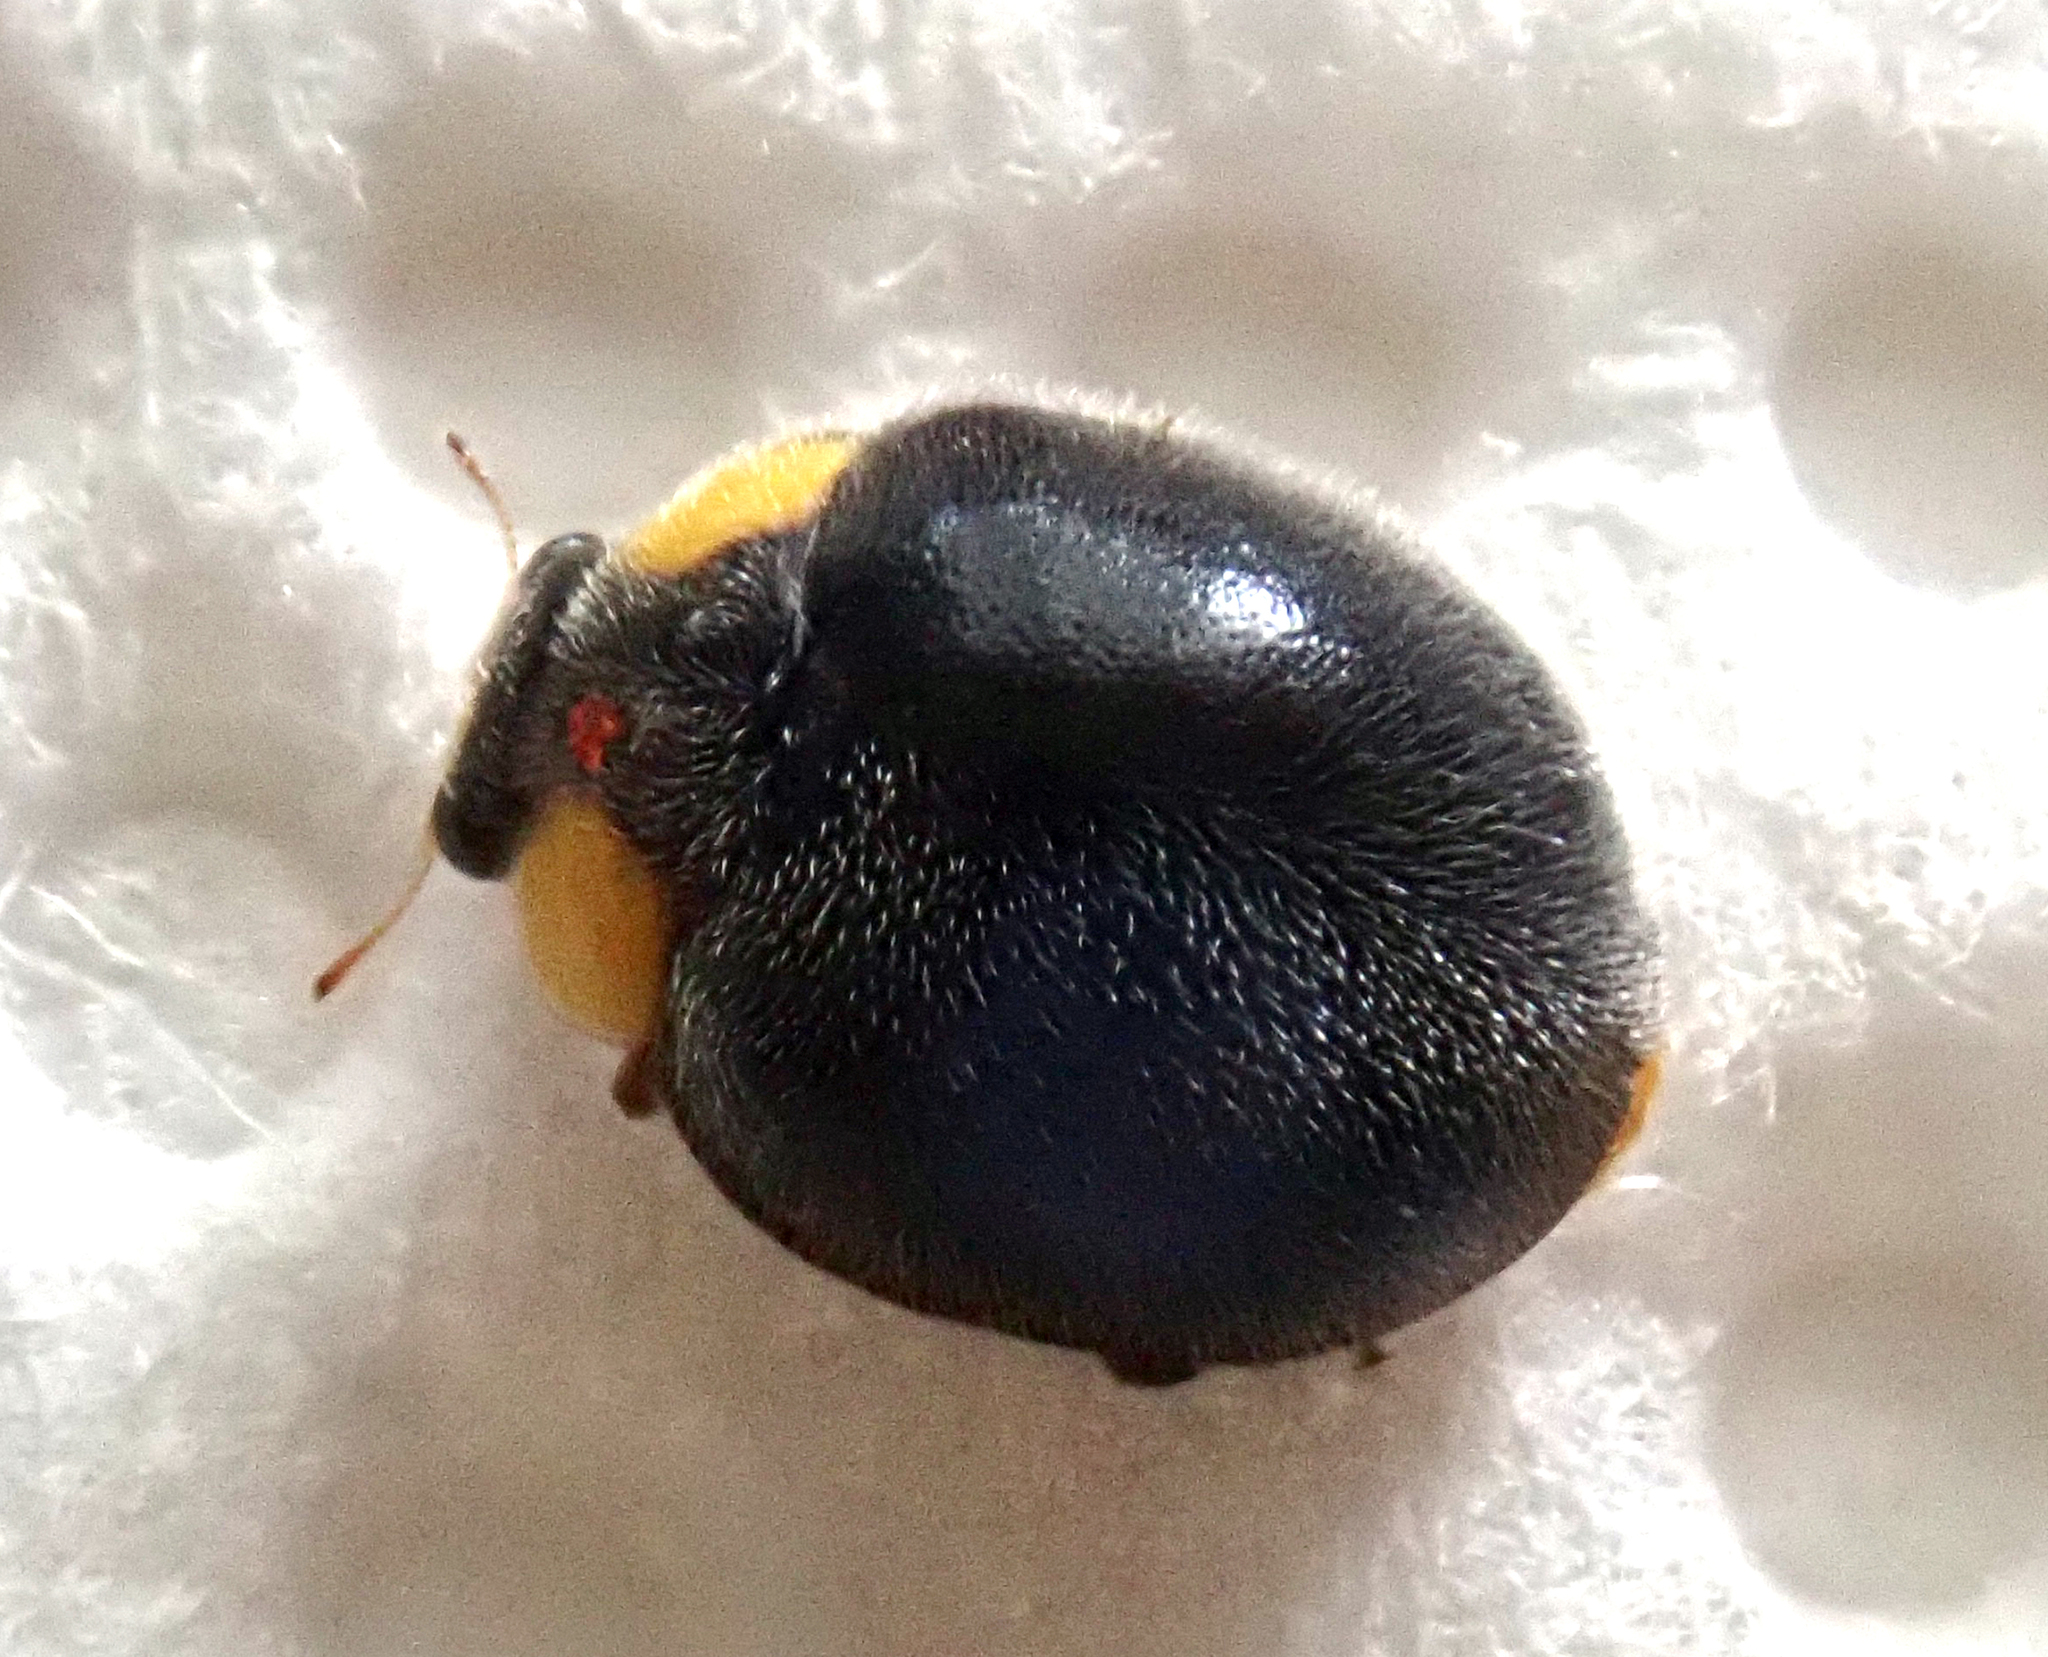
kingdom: Animalia
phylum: Arthropoda
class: Insecta
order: Coleoptera
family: Coccinellidae
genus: Scymnodes
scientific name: Scymnodes lividigaster
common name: Yellowshouldered lady beetle
